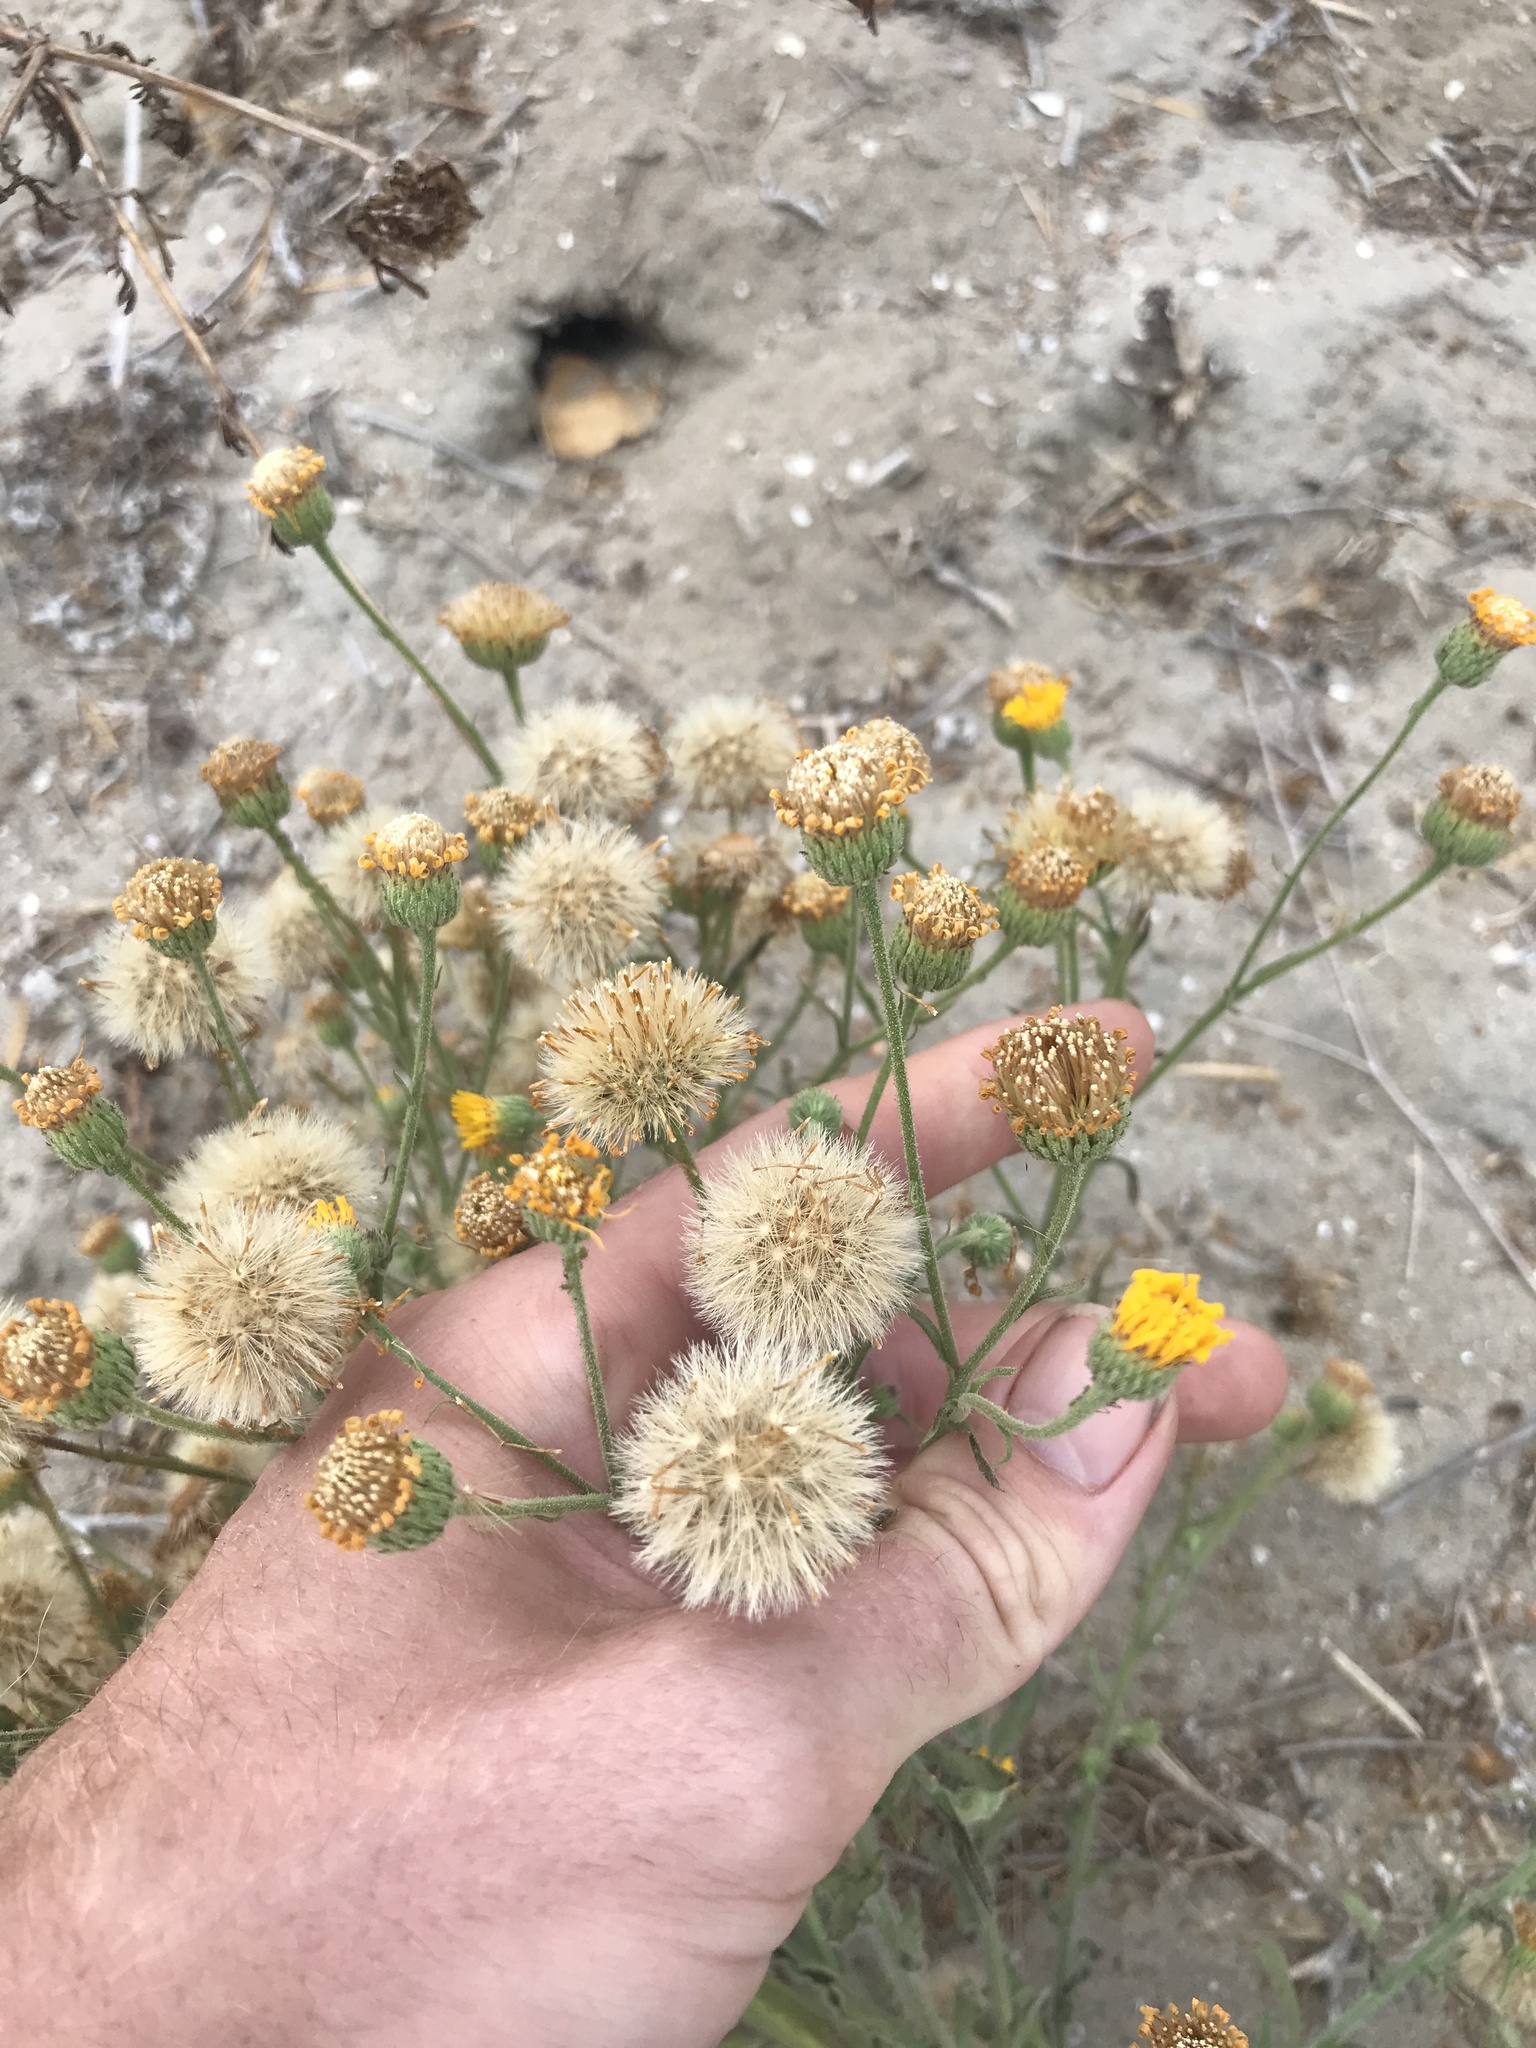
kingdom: Plantae
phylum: Tracheophyta
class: Magnoliopsida
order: Asterales
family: Asteraceae
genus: Heterotheca
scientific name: Heterotheca grandiflora
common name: Telegraphweed
